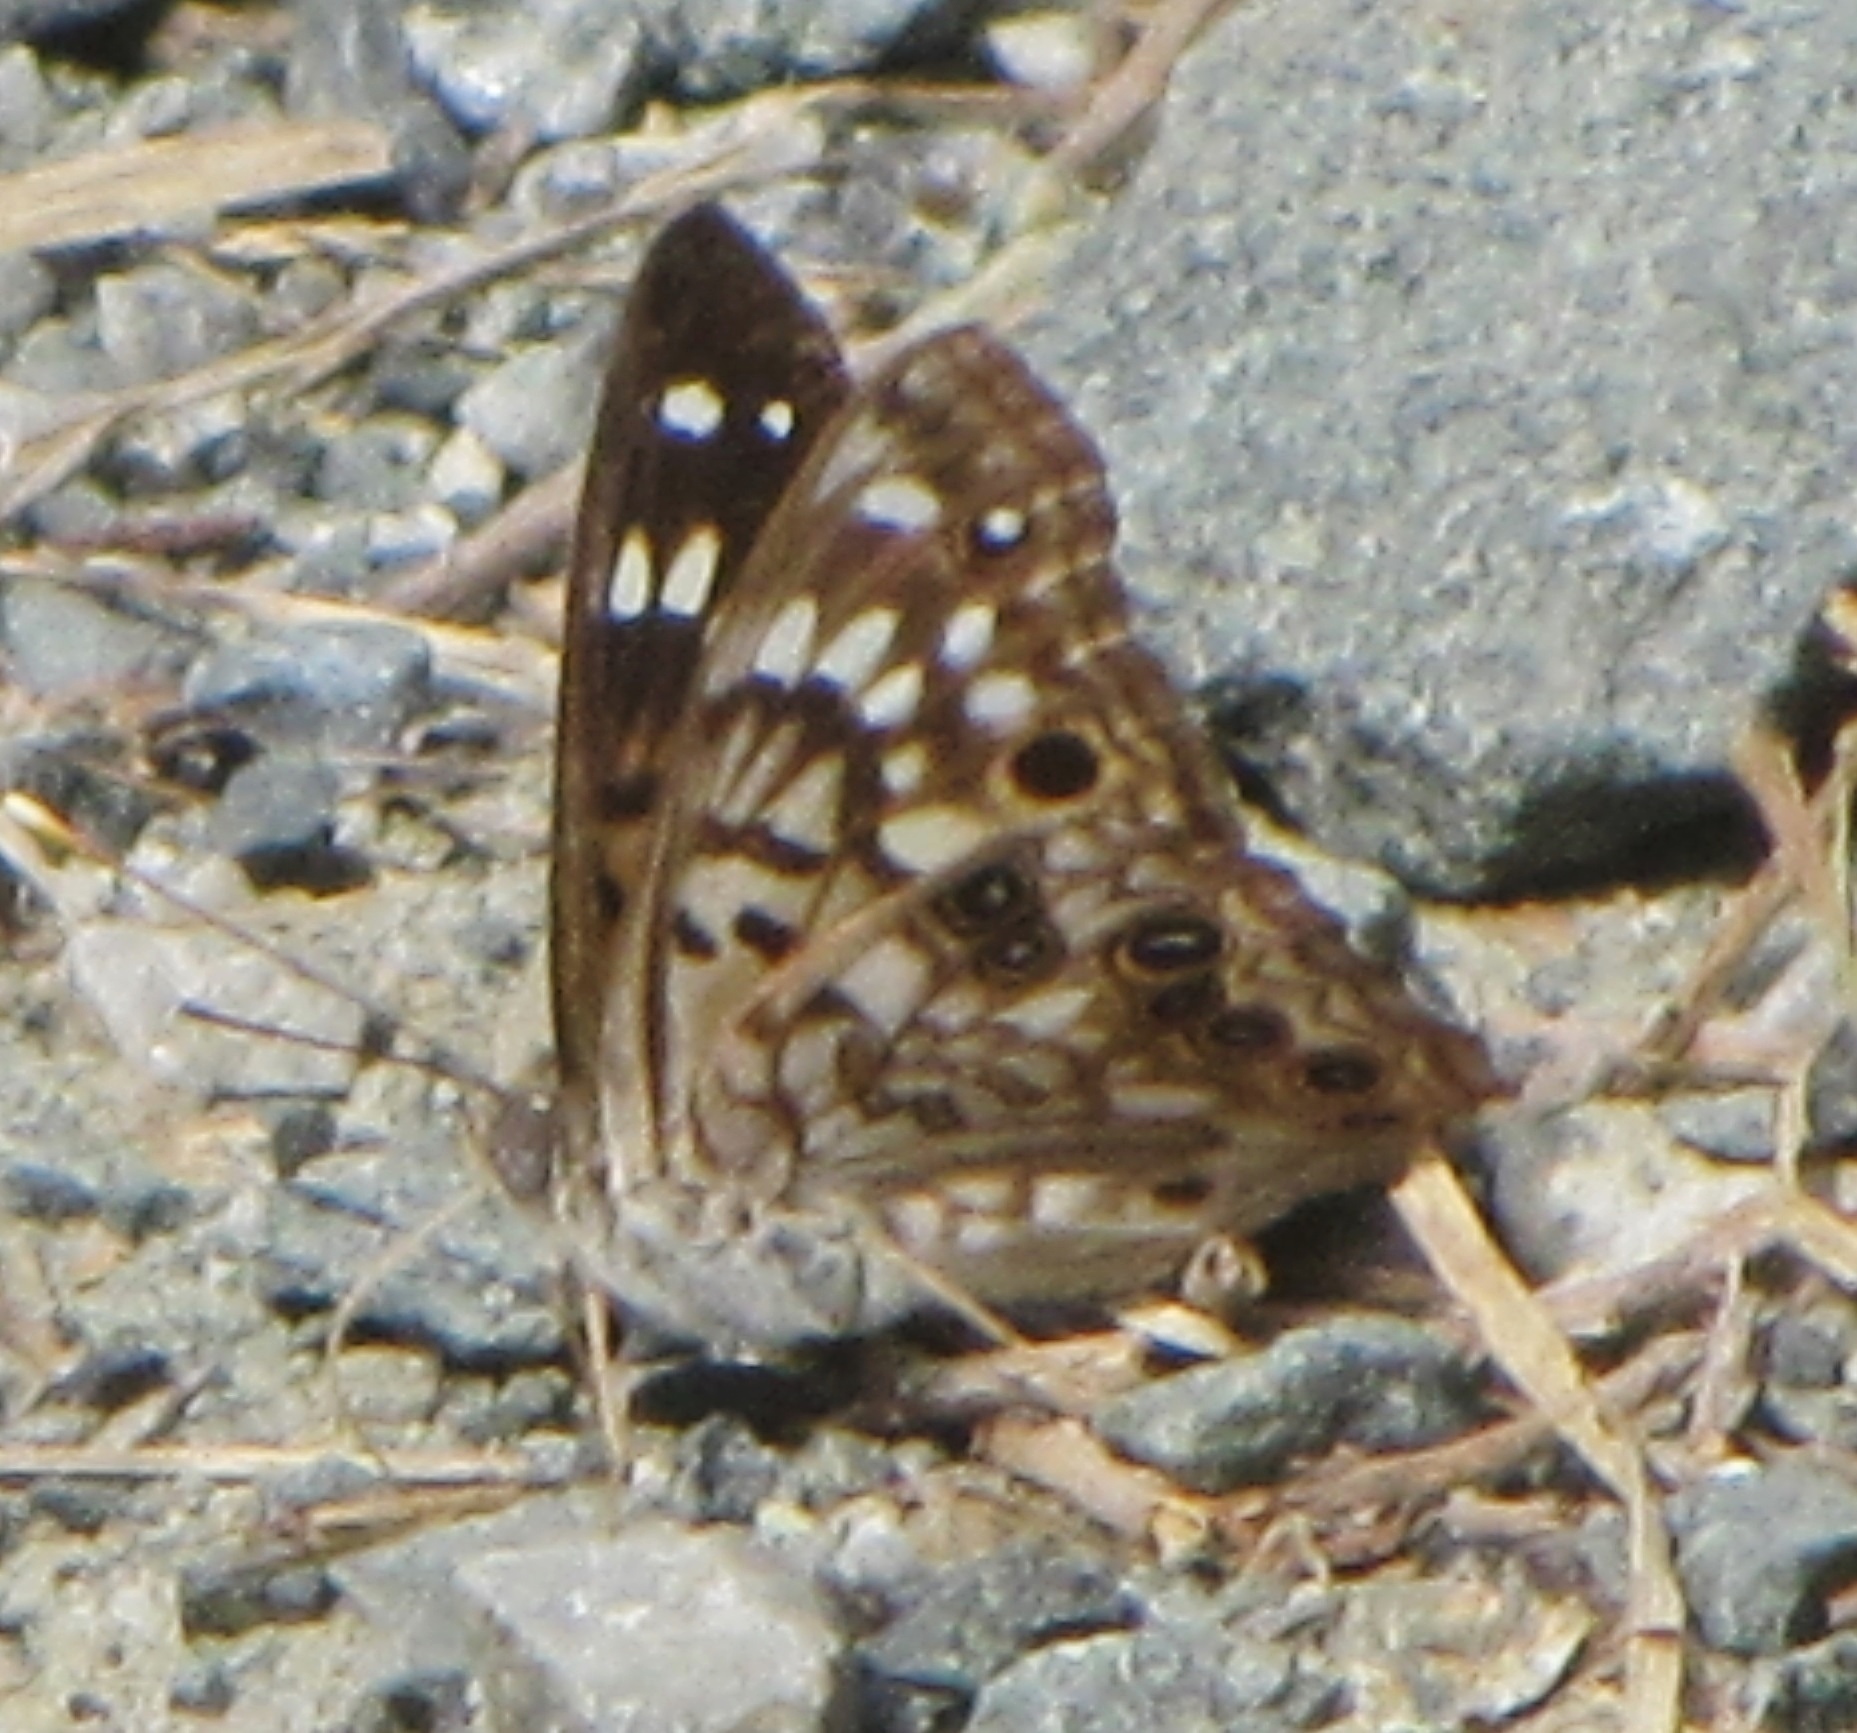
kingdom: Animalia
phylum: Arthropoda
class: Insecta
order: Lepidoptera
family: Nymphalidae
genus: Asterocampa
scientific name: Asterocampa celtis
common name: Hackberry emperor
